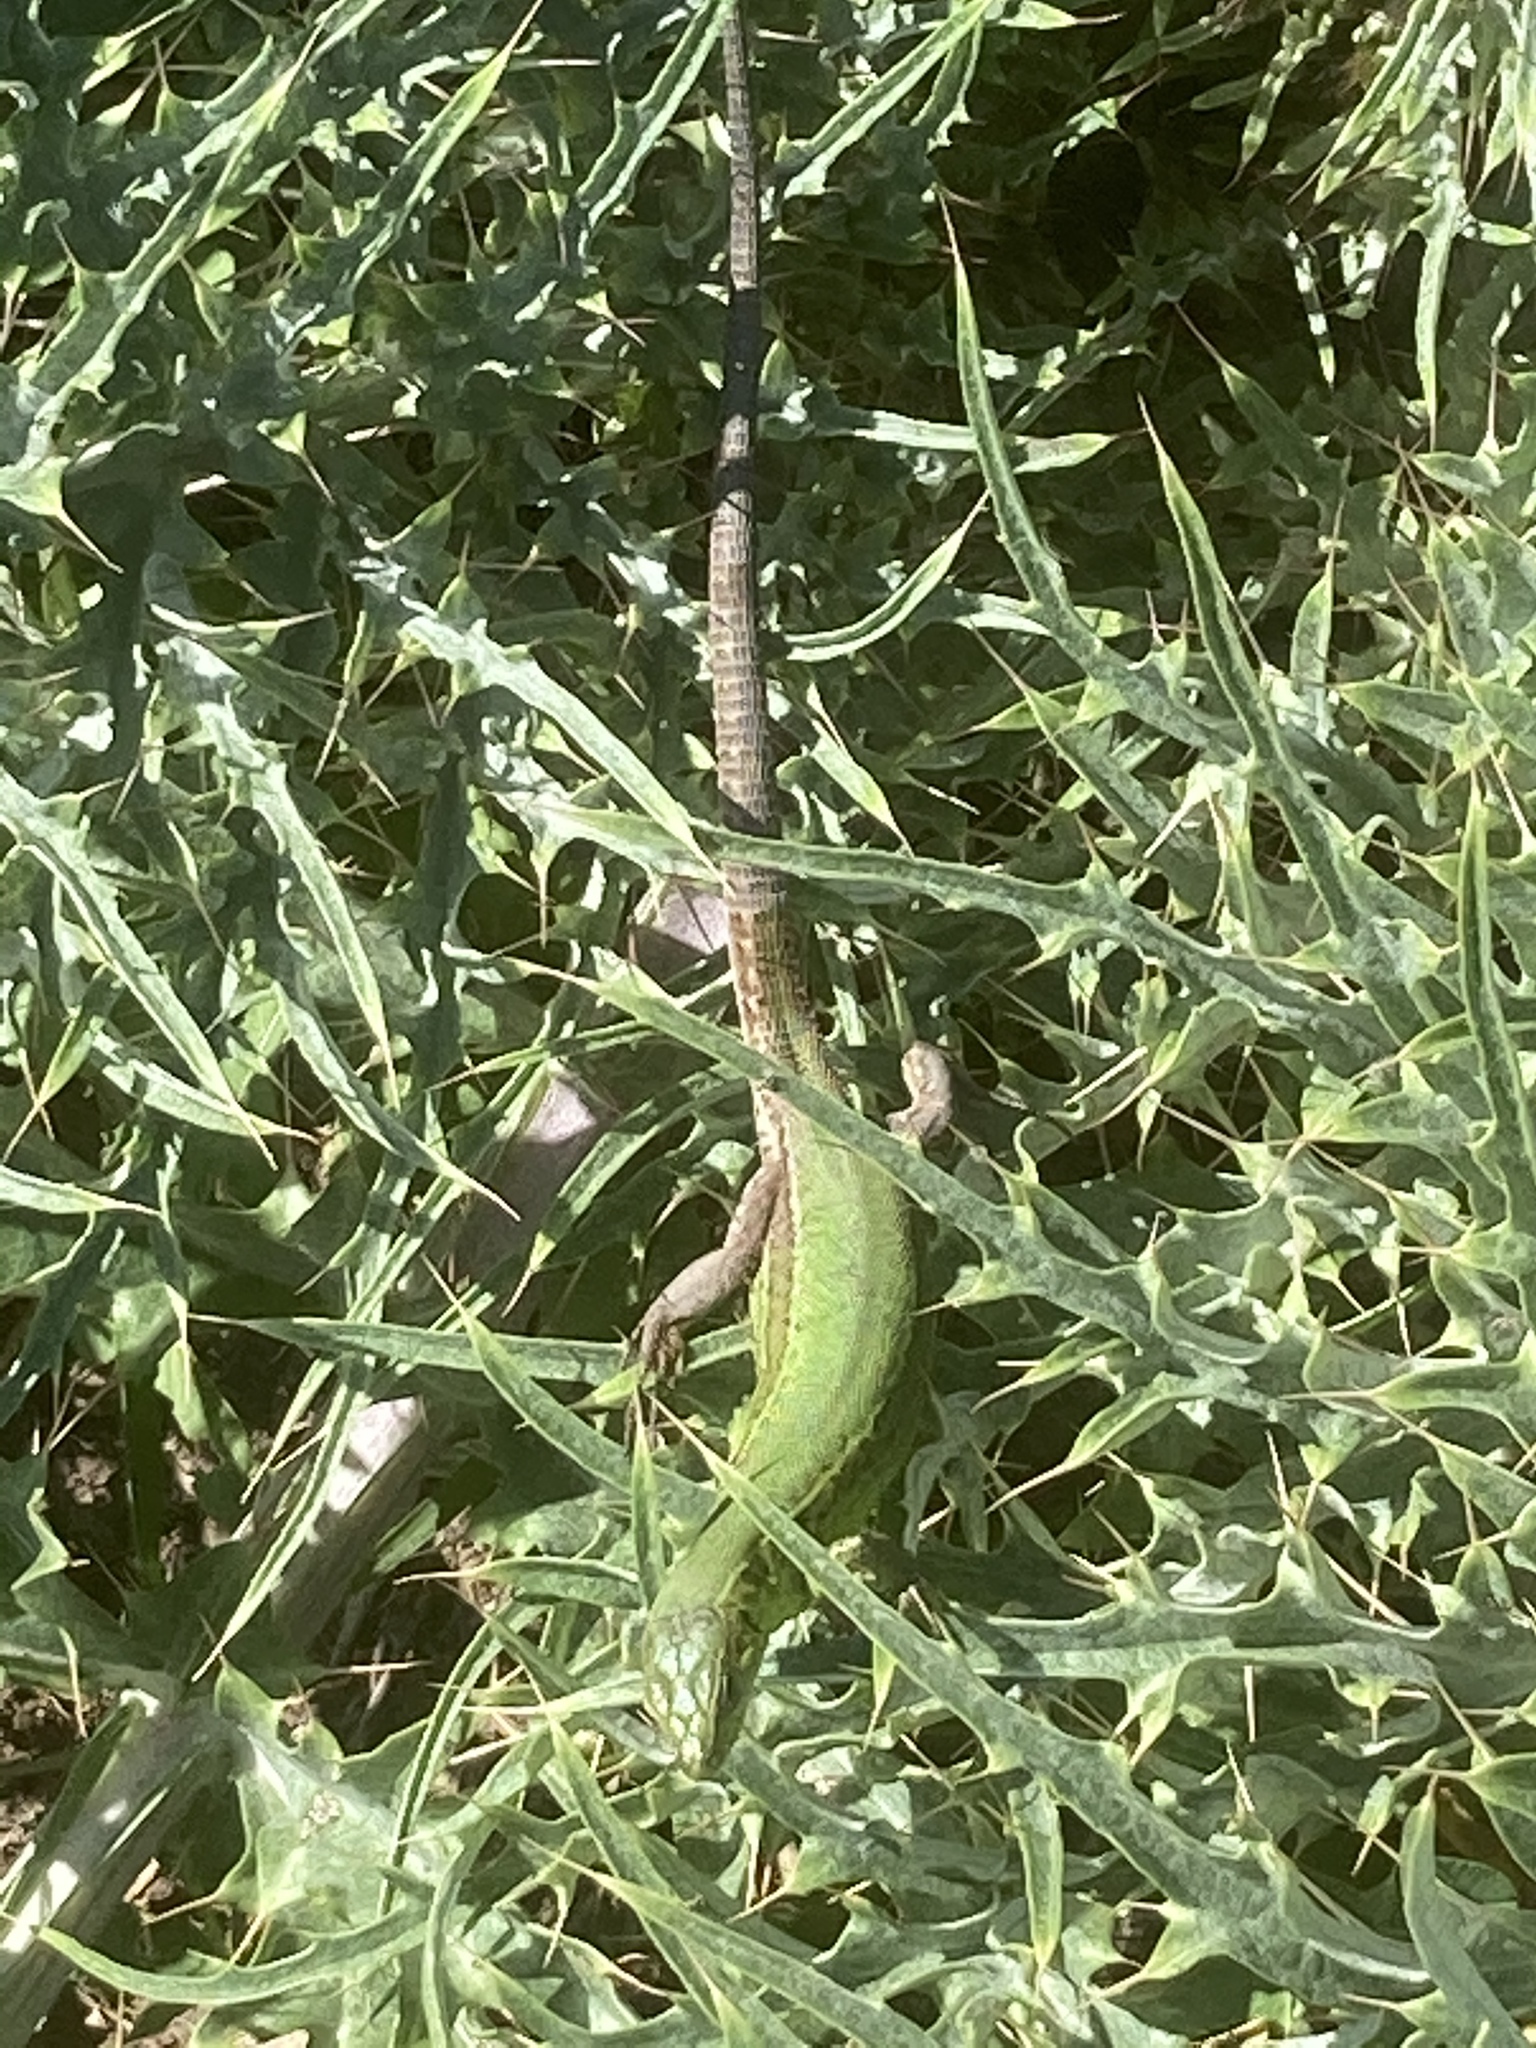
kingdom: Plantae
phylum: Tracheophyta
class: Magnoliopsida
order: Asterales
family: Asteraceae
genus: Cynara
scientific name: Cynara cardunculus
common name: Globe artichoke
